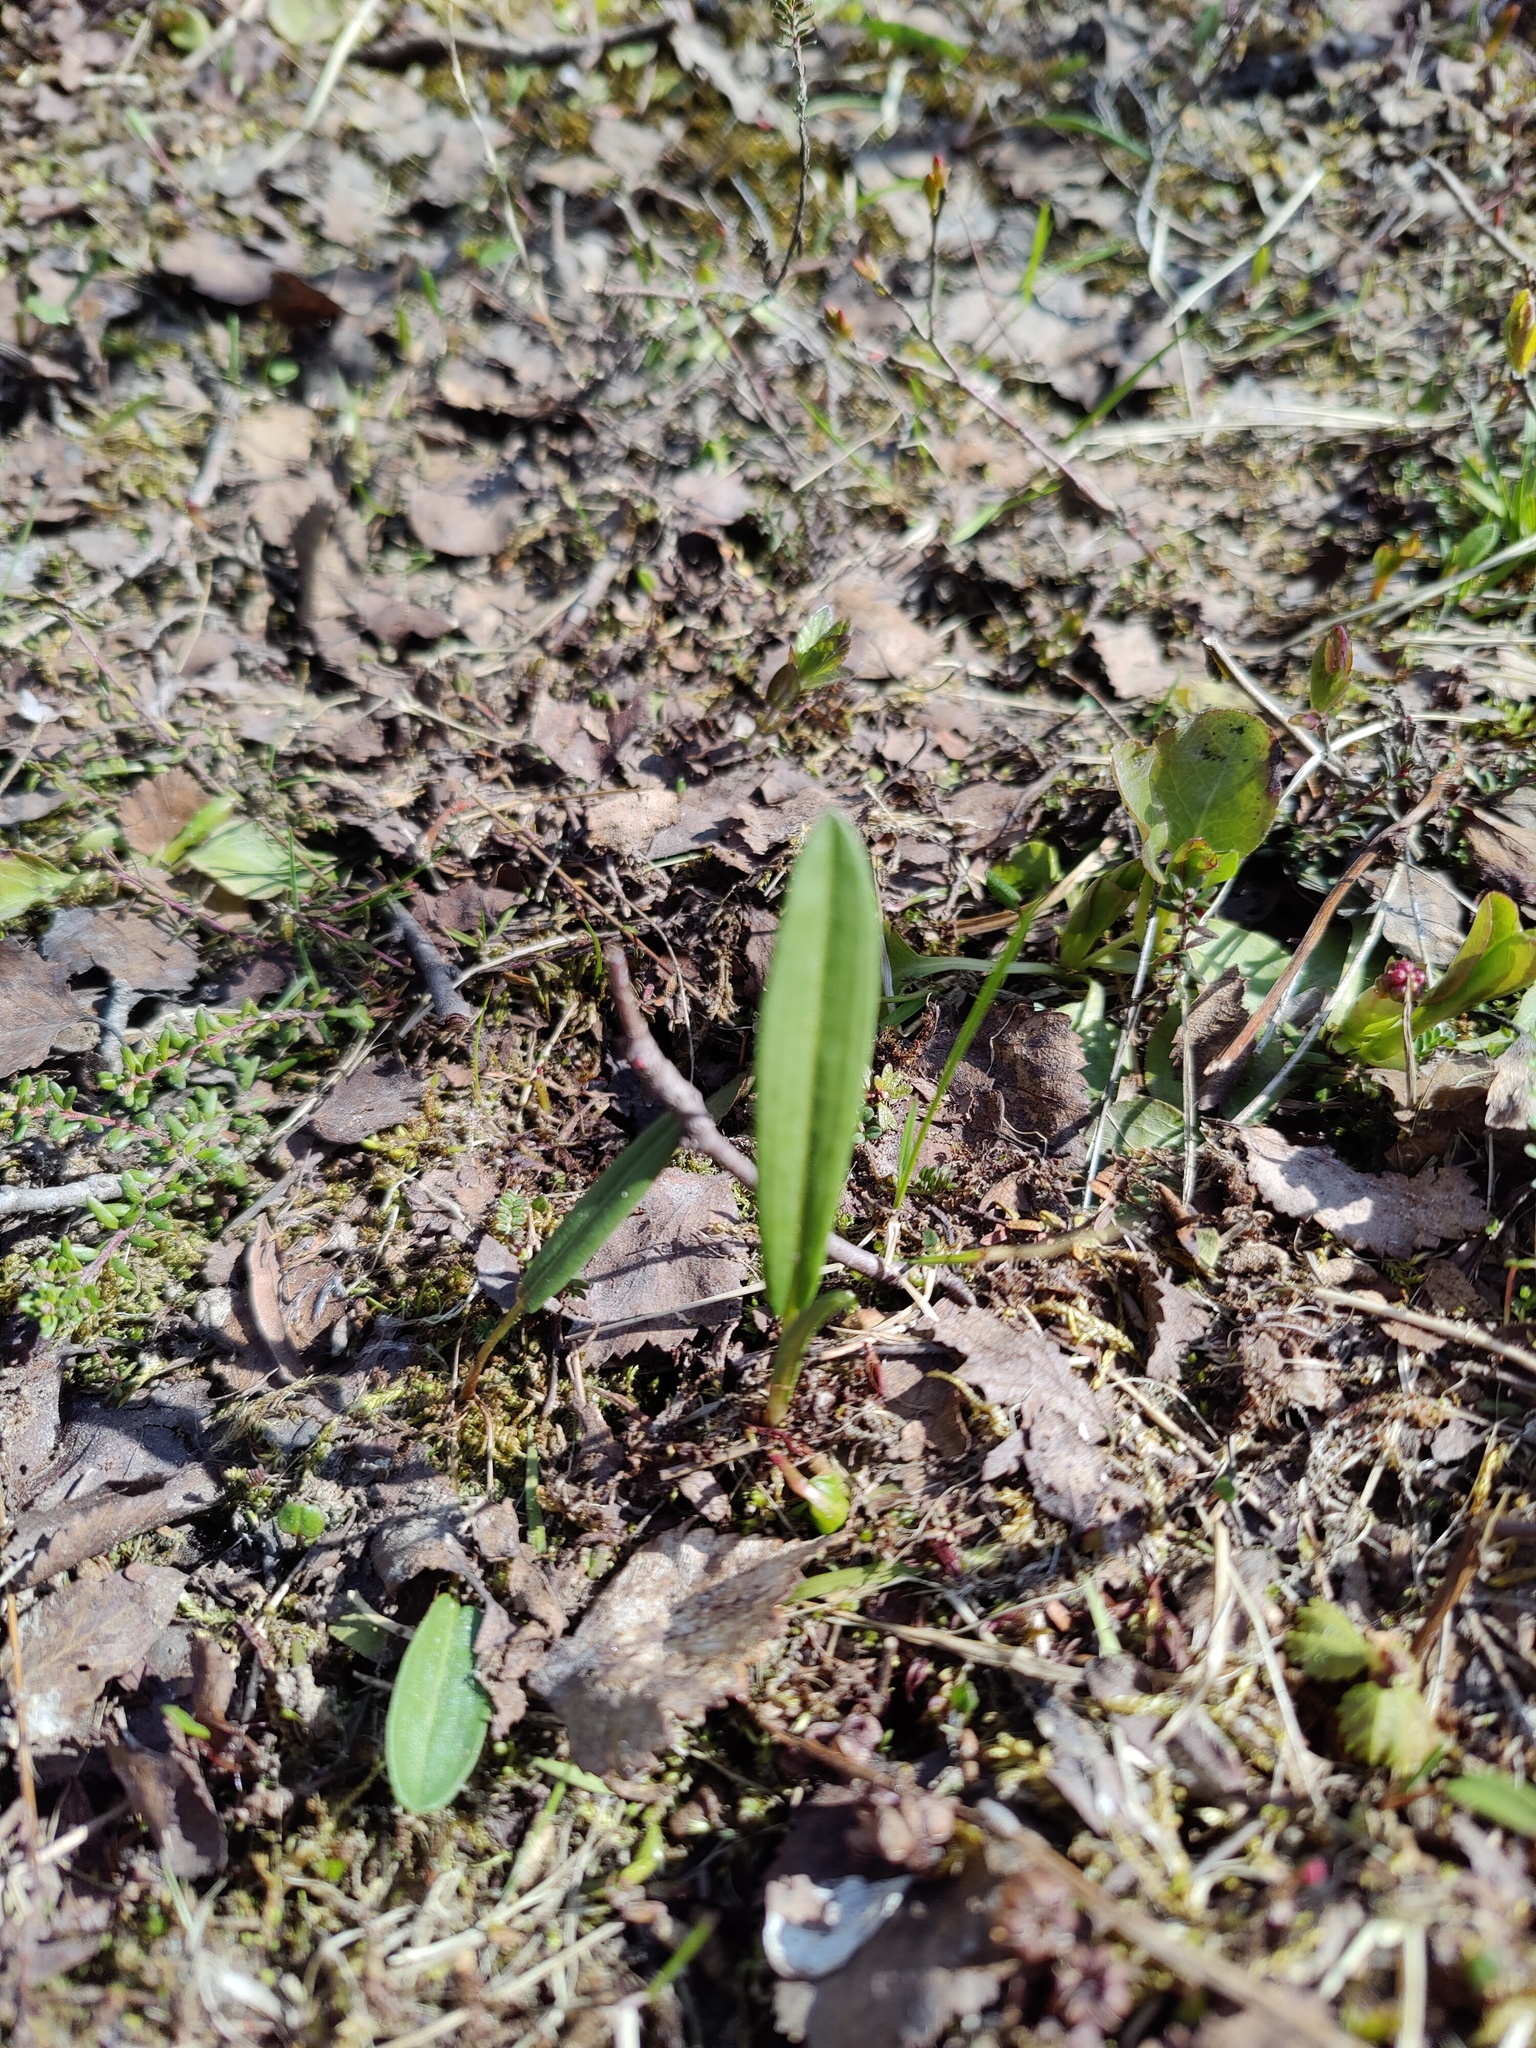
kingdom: Plantae
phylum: Tracheophyta
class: Magnoliopsida
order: Caryophyllales
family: Polygonaceae
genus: Bistorta
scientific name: Bistorta vivipara
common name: Alpine bistort
